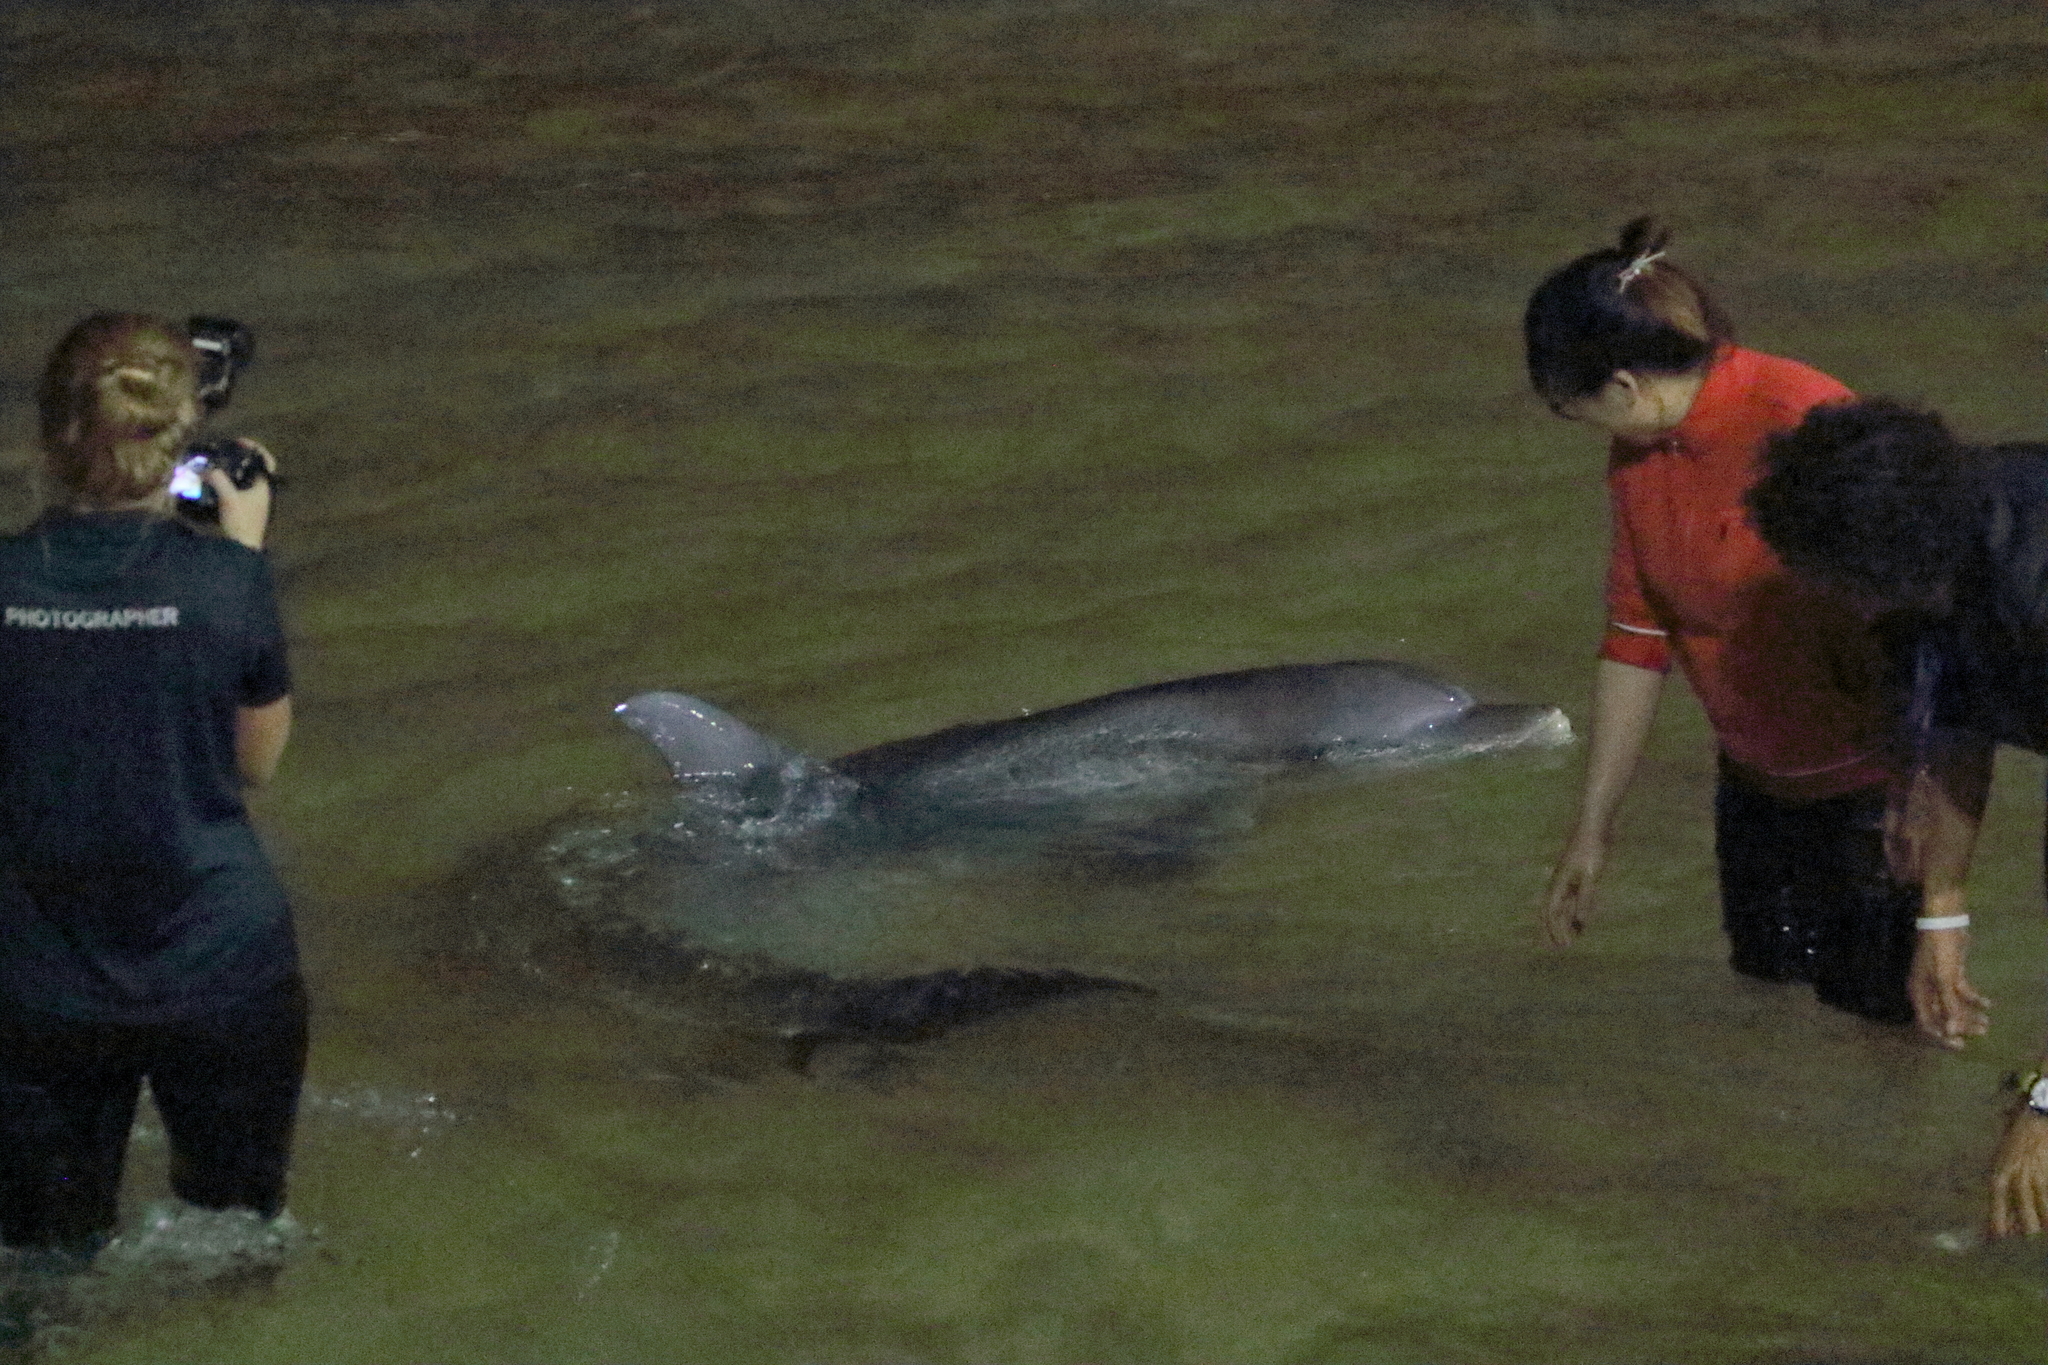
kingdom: Animalia
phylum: Chordata
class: Mammalia
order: Cetacea
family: Delphinidae
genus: Tursiops
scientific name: Tursiops aduncus
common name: Indo-pacific bottlenose dolphin
